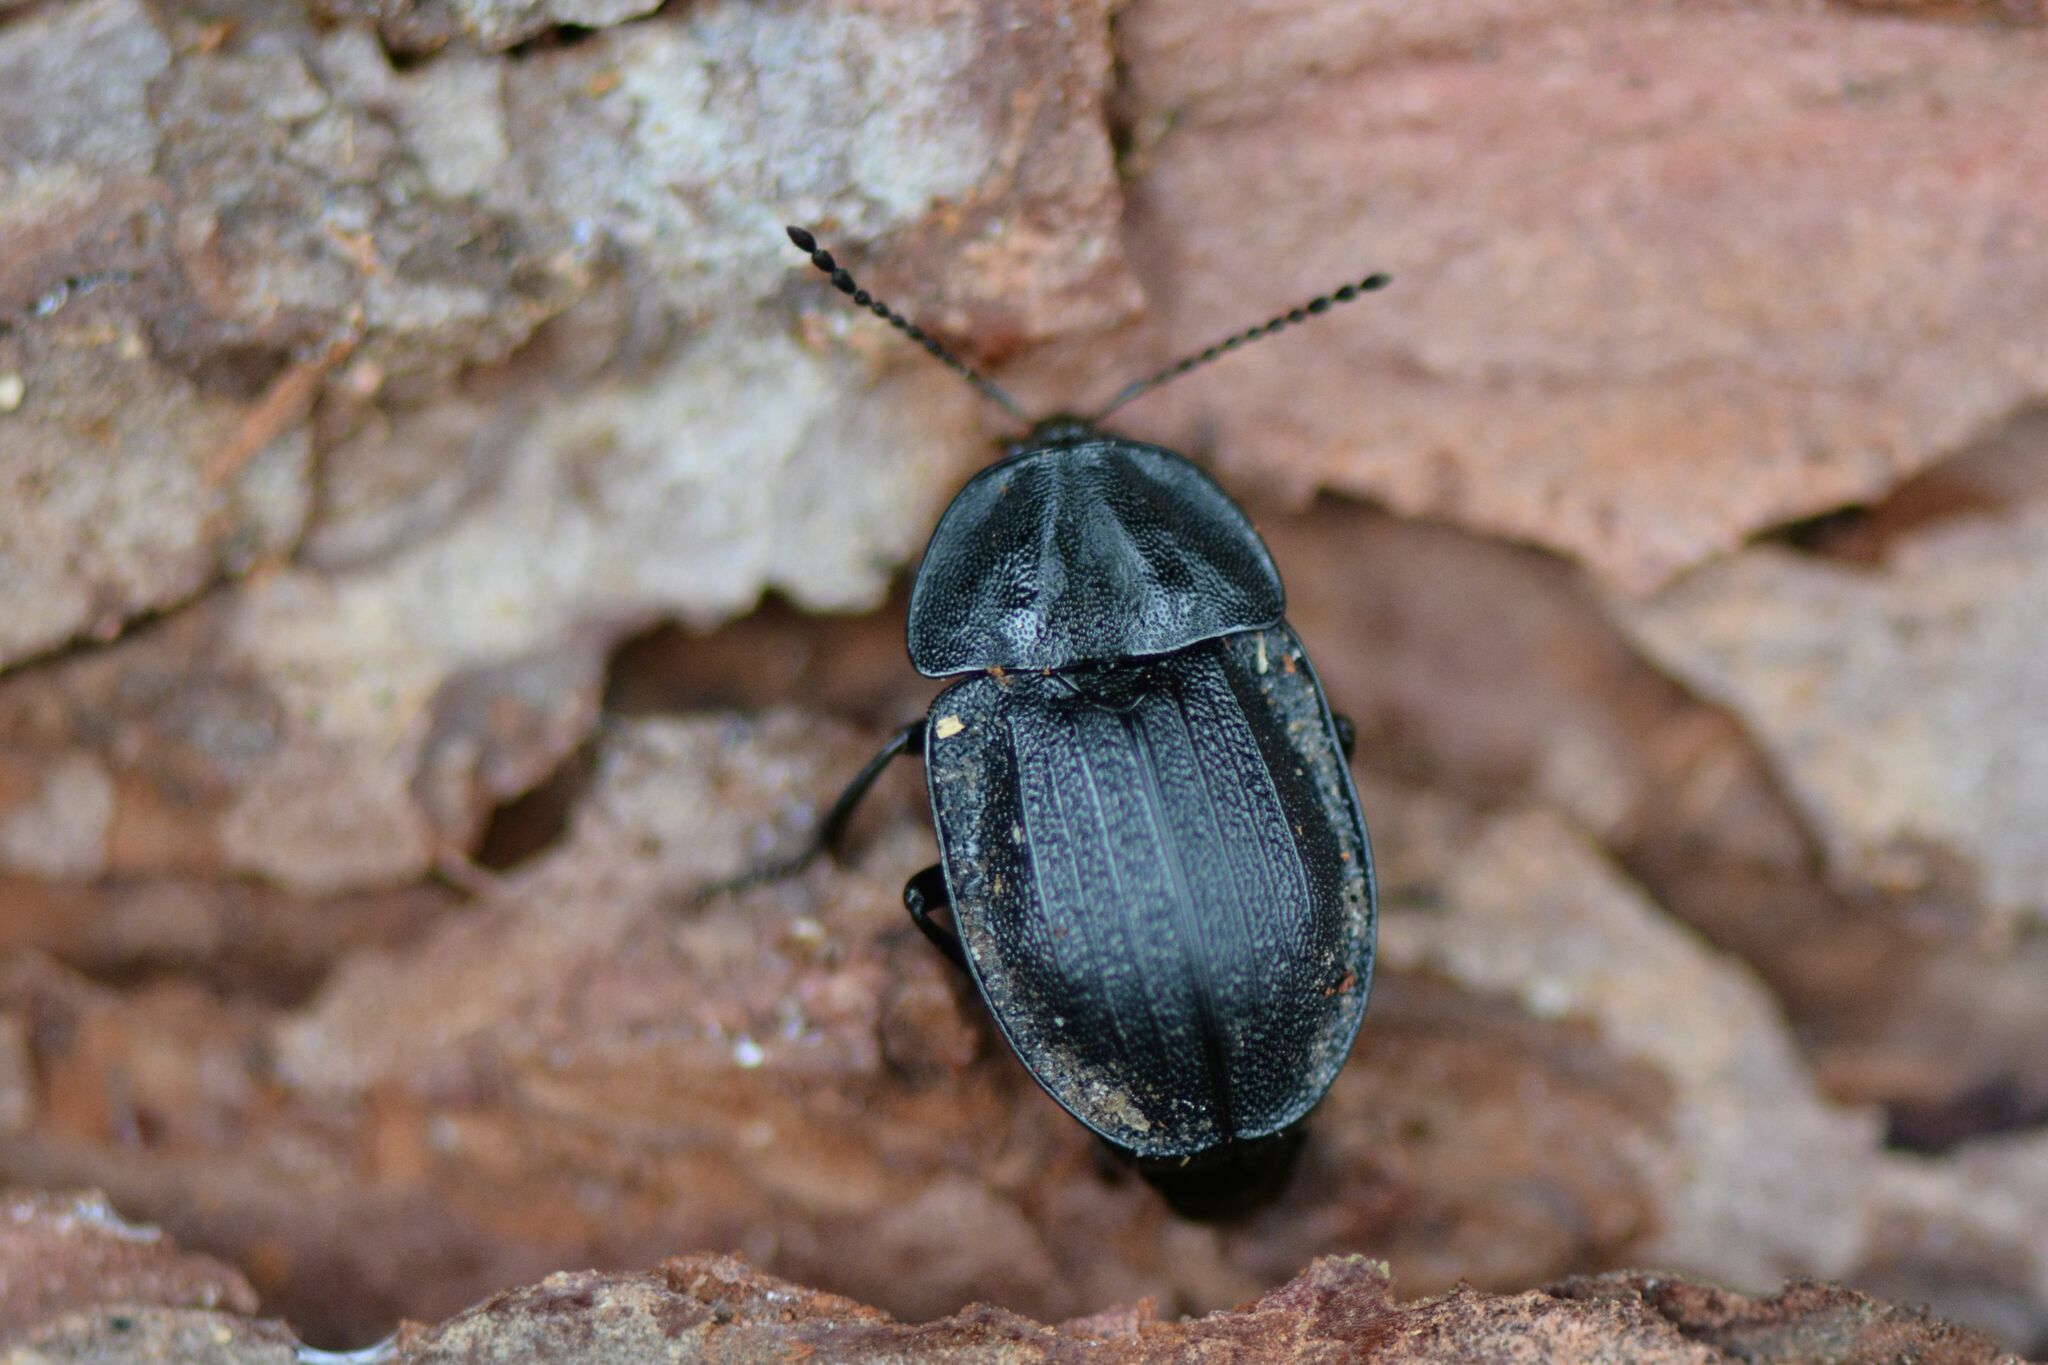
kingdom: Animalia
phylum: Arthropoda
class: Insecta
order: Coleoptera
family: Staphylinidae
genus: Silpha
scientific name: Silpha atrata
